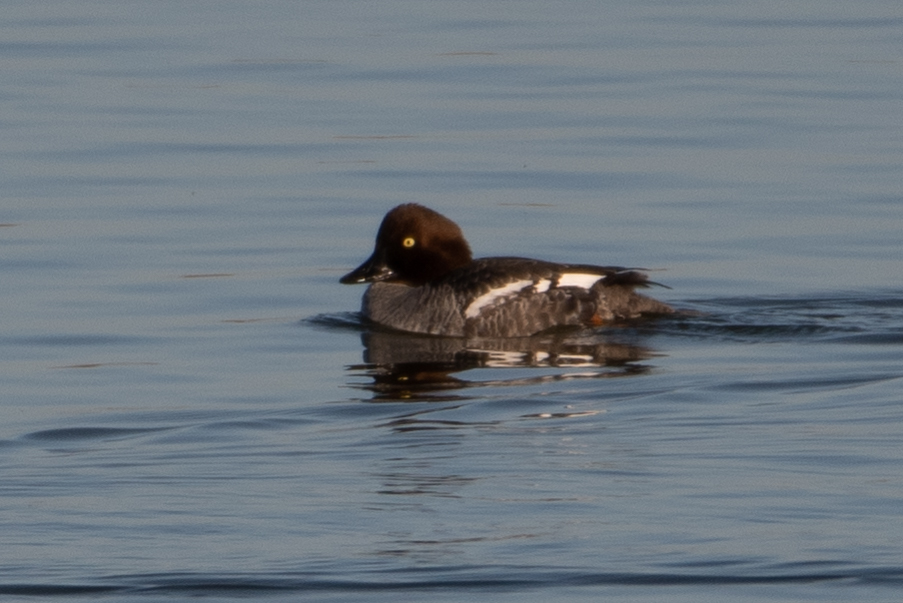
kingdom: Animalia
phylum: Chordata
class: Aves
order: Anseriformes
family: Anatidae
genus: Bucephala
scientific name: Bucephala clangula
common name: Common goldeneye
